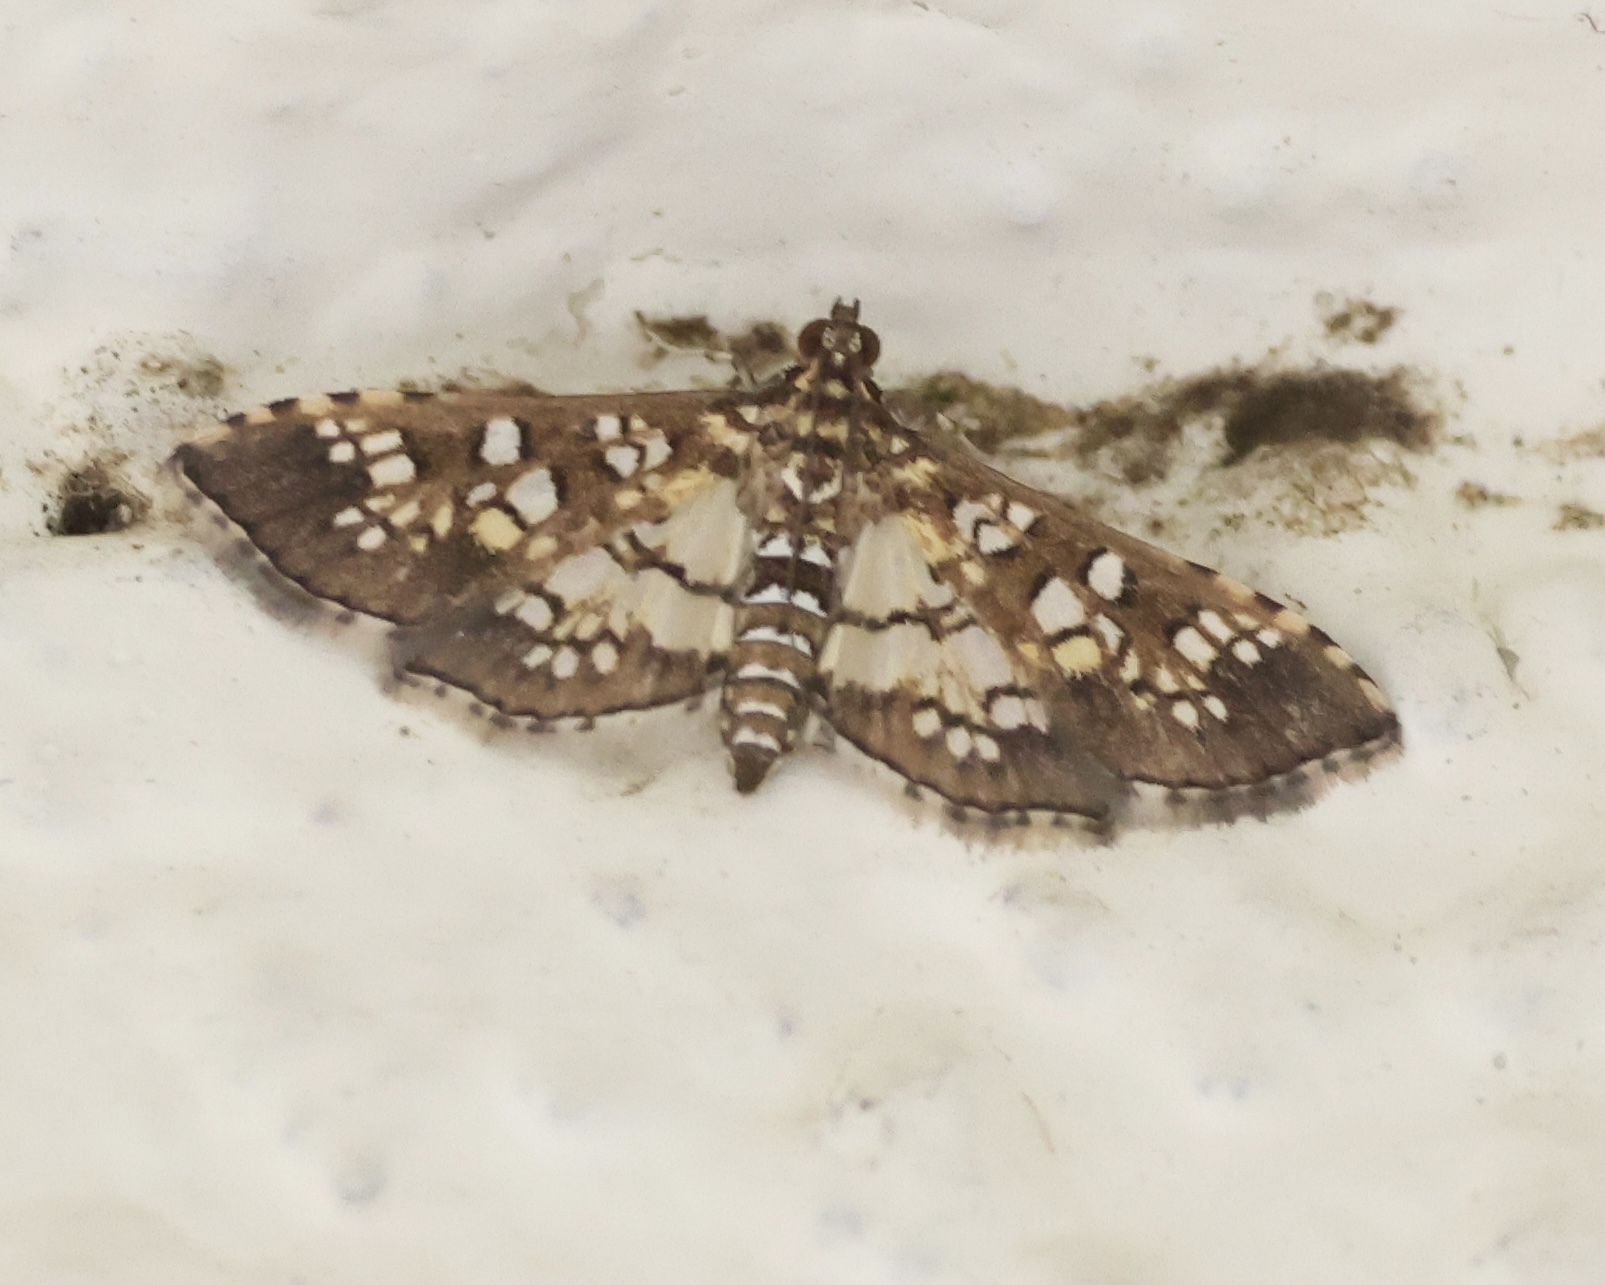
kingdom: Animalia
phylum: Arthropoda
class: Insecta
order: Lepidoptera
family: Crambidae
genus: Samea
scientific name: Samea ecclesialis
